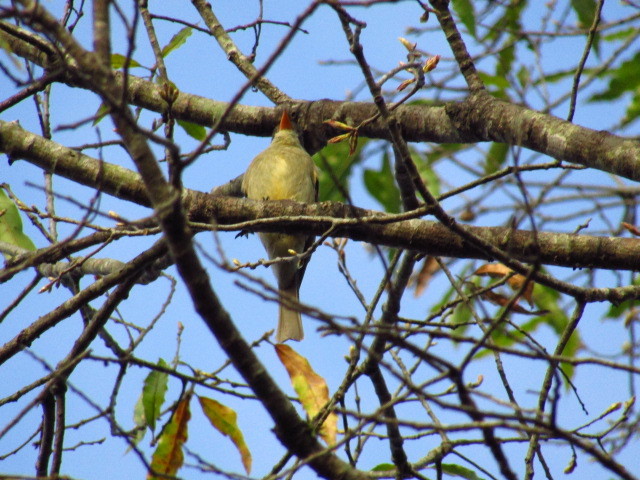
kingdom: Animalia
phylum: Chordata
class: Aves
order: Passeriformes
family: Tyrannidae
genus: Contopus
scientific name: Contopus pertinax
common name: Greater pewee
